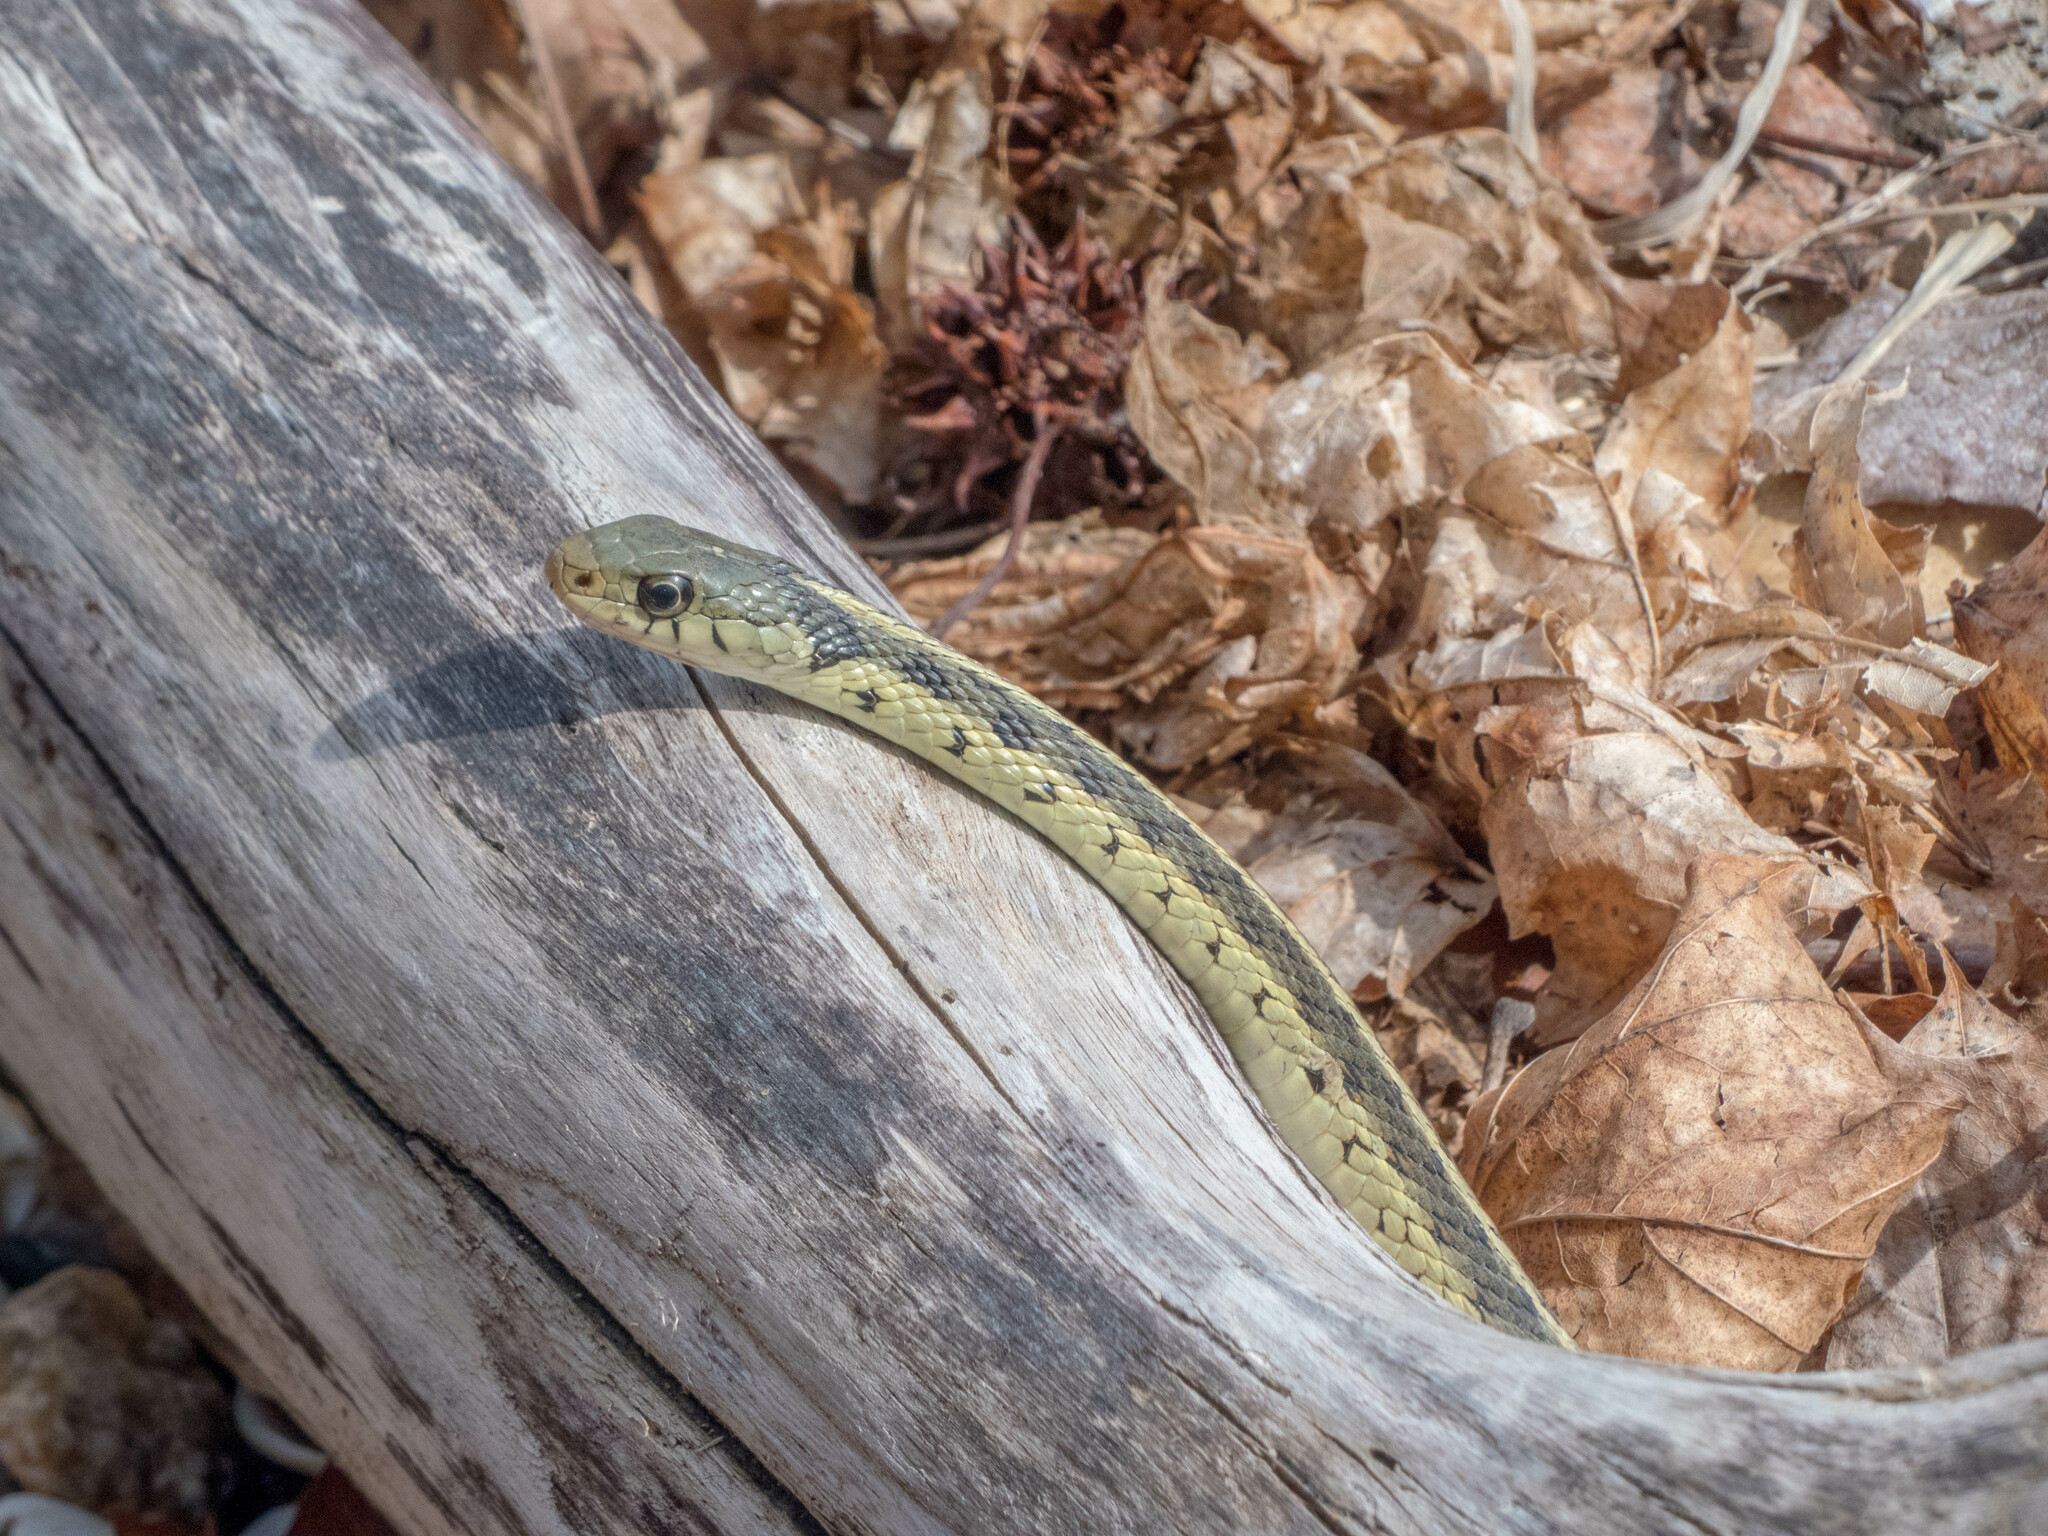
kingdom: Animalia
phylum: Chordata
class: Squamata
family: Colubridae
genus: Thamnophis
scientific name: Thamnophis sirtalis
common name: Common garter snake
